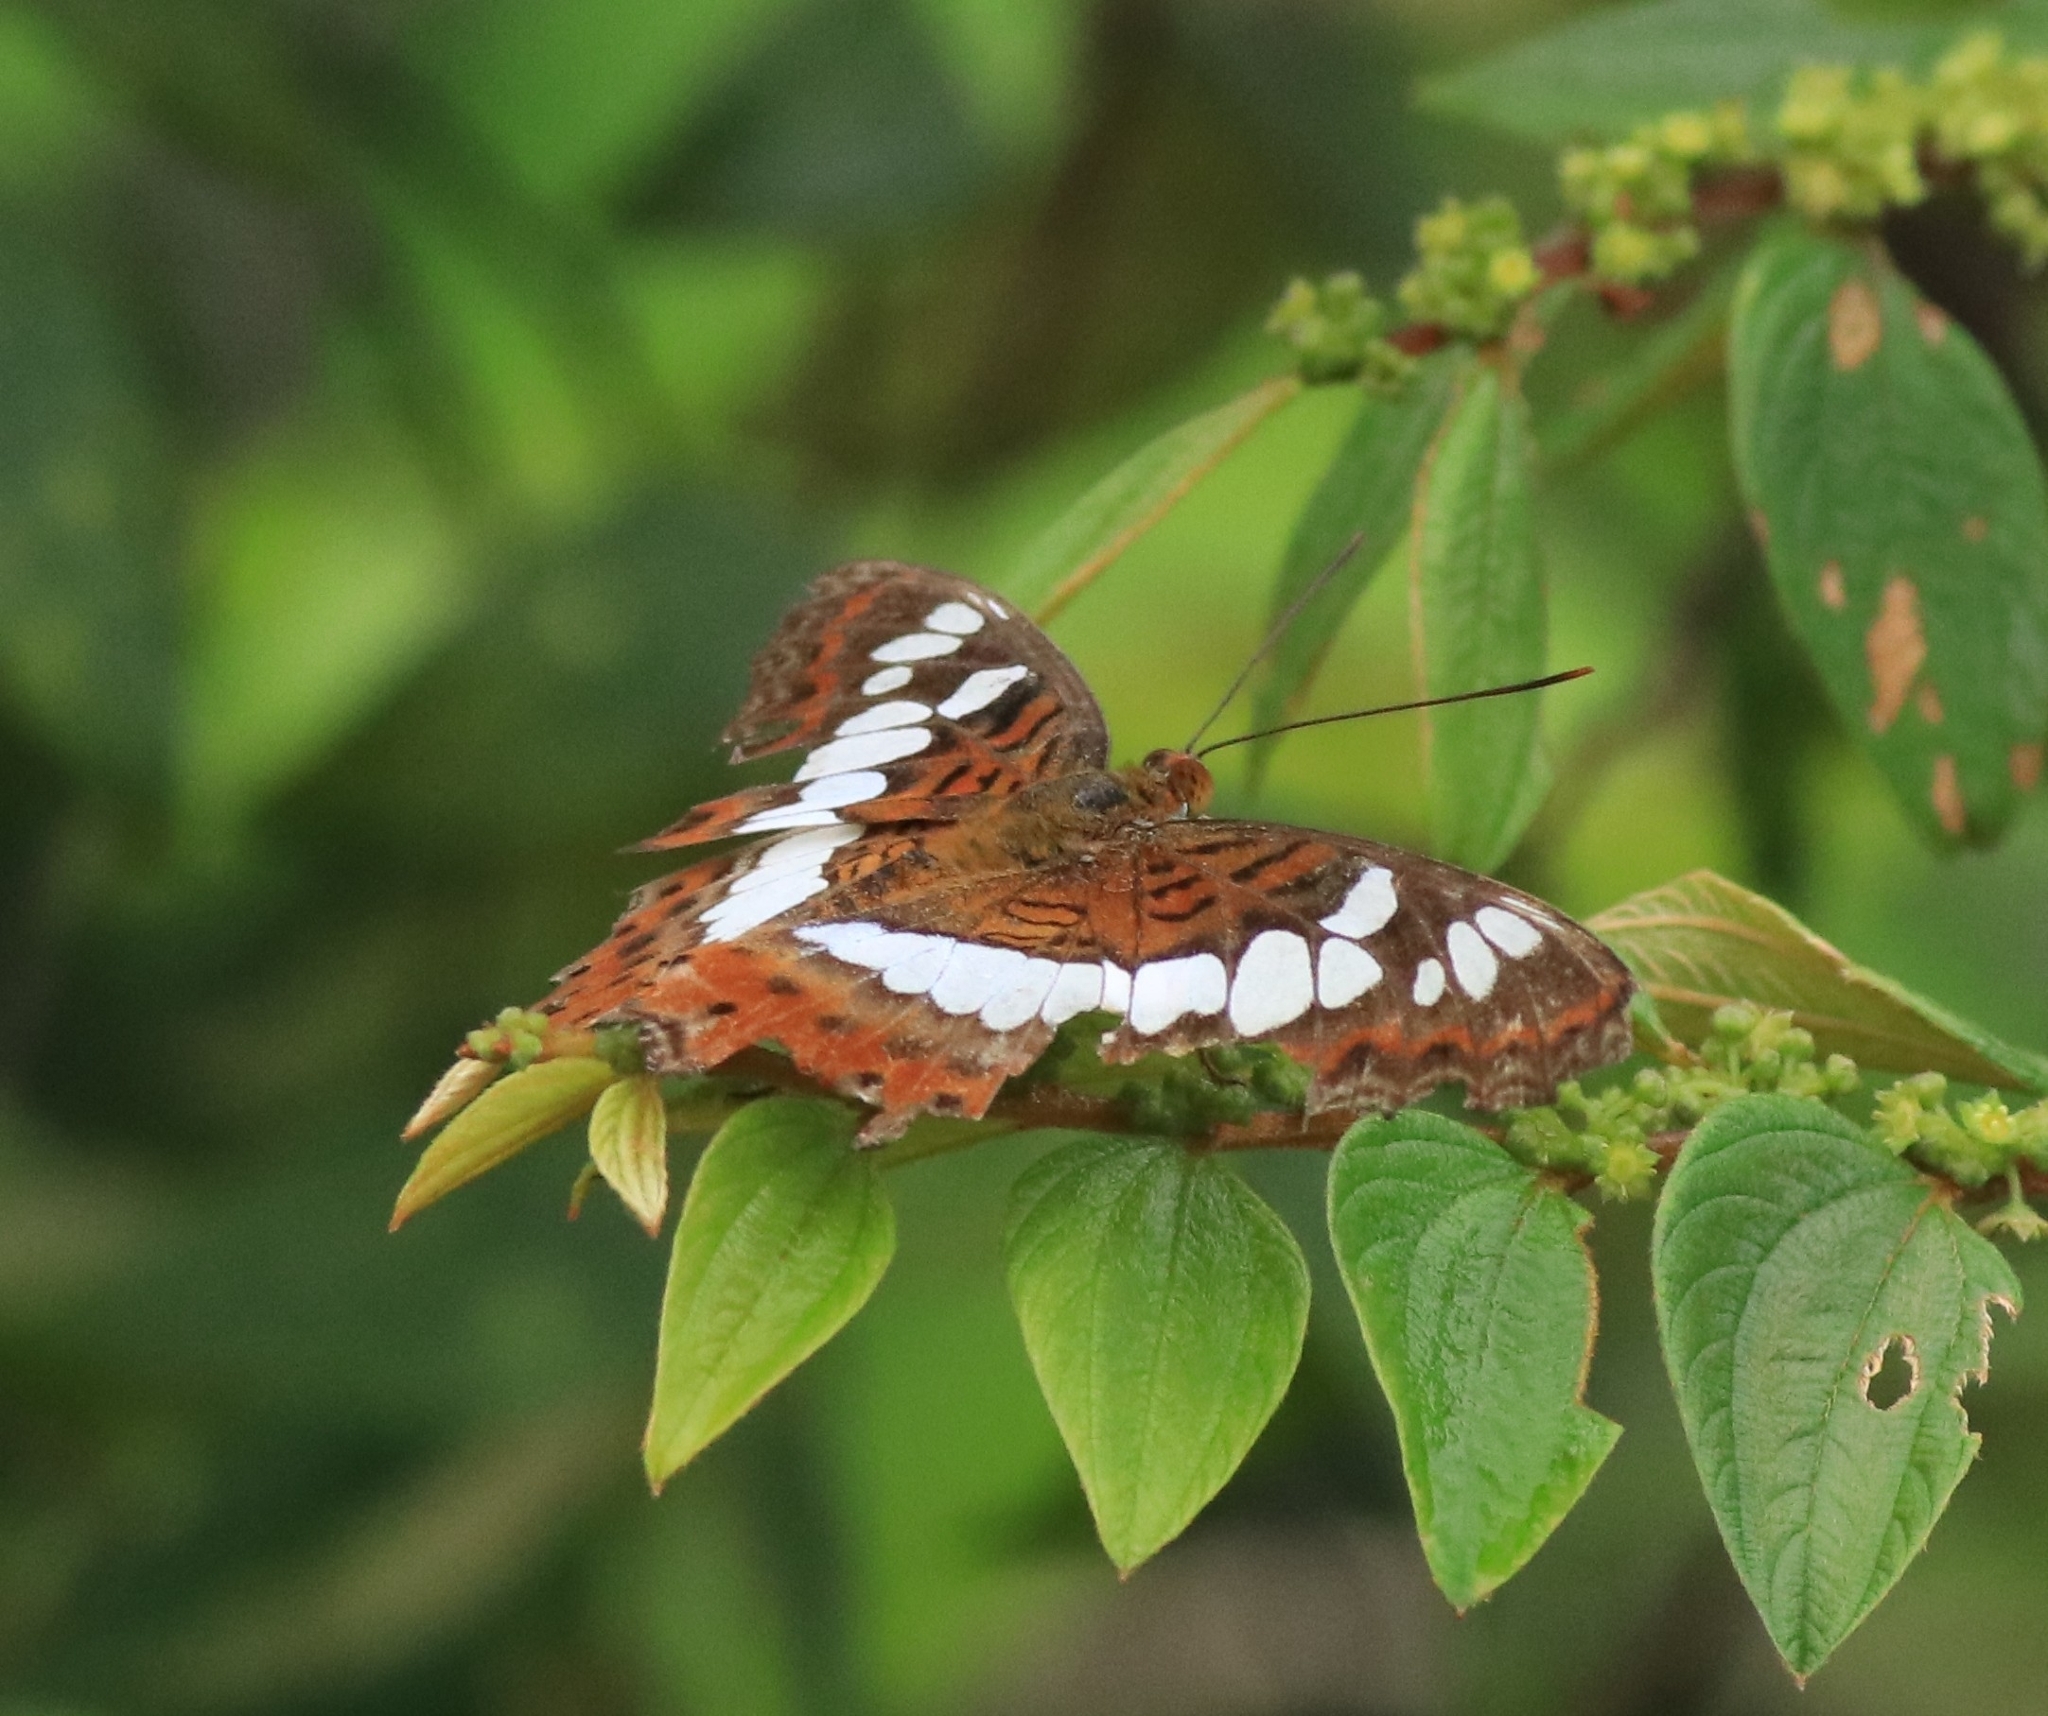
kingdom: Animalia
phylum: Arthropoda
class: Insecta
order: Lepidoptera
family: Nymphalidae
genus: Limenitis
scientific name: Limenitis Moduza procris
